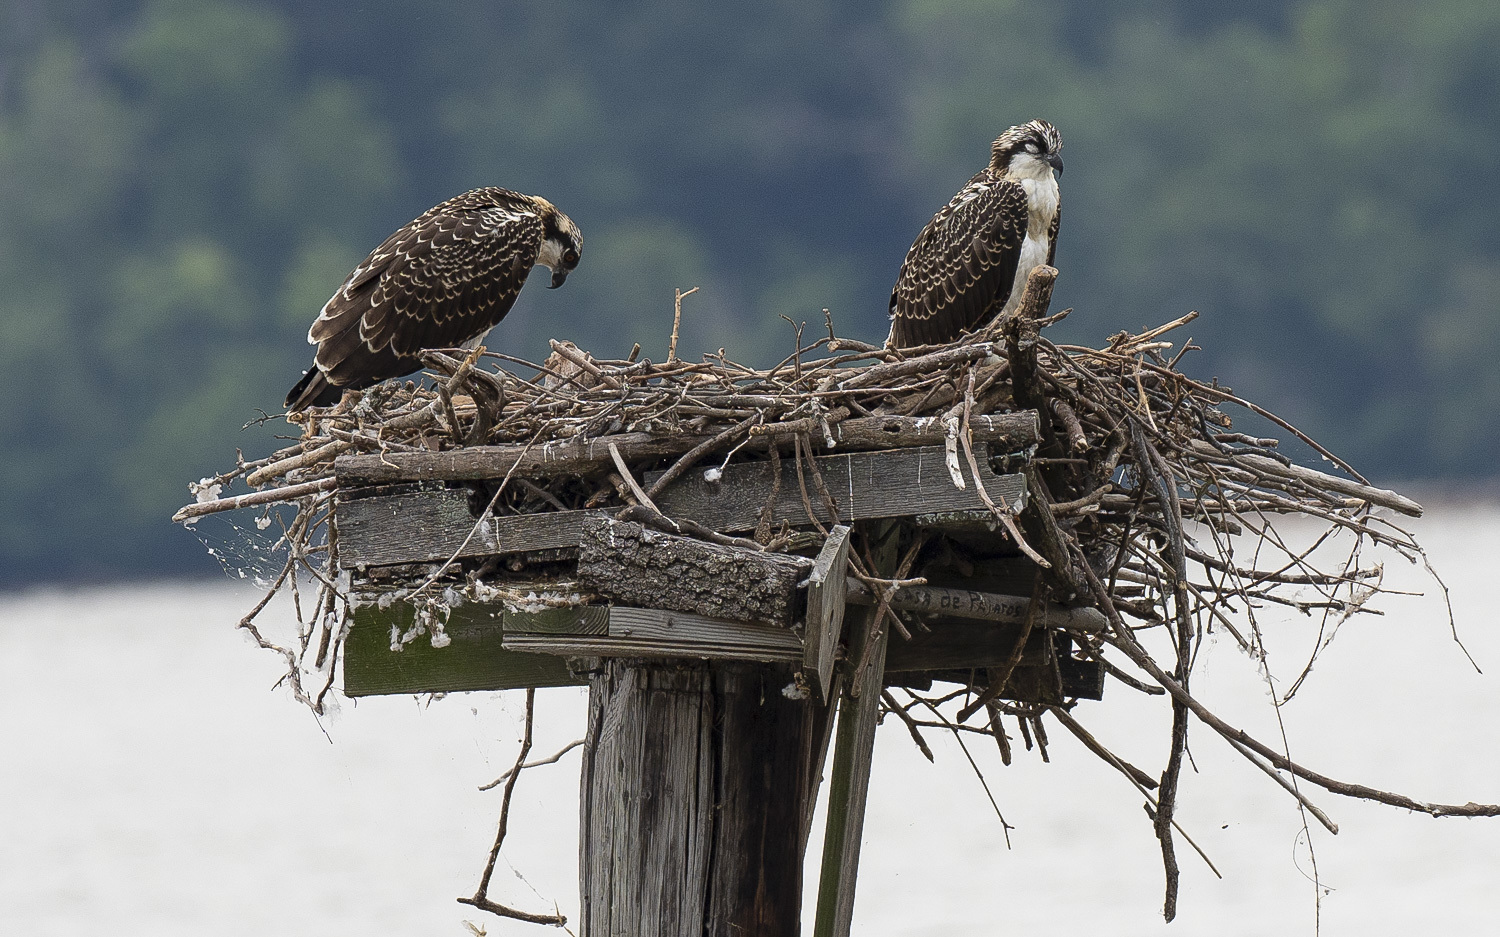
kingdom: Animalia
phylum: Chordata
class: Aves
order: Accipitriformes
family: Pandionidae
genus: Pandion
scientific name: Pandion haliaetus
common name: Osprey
